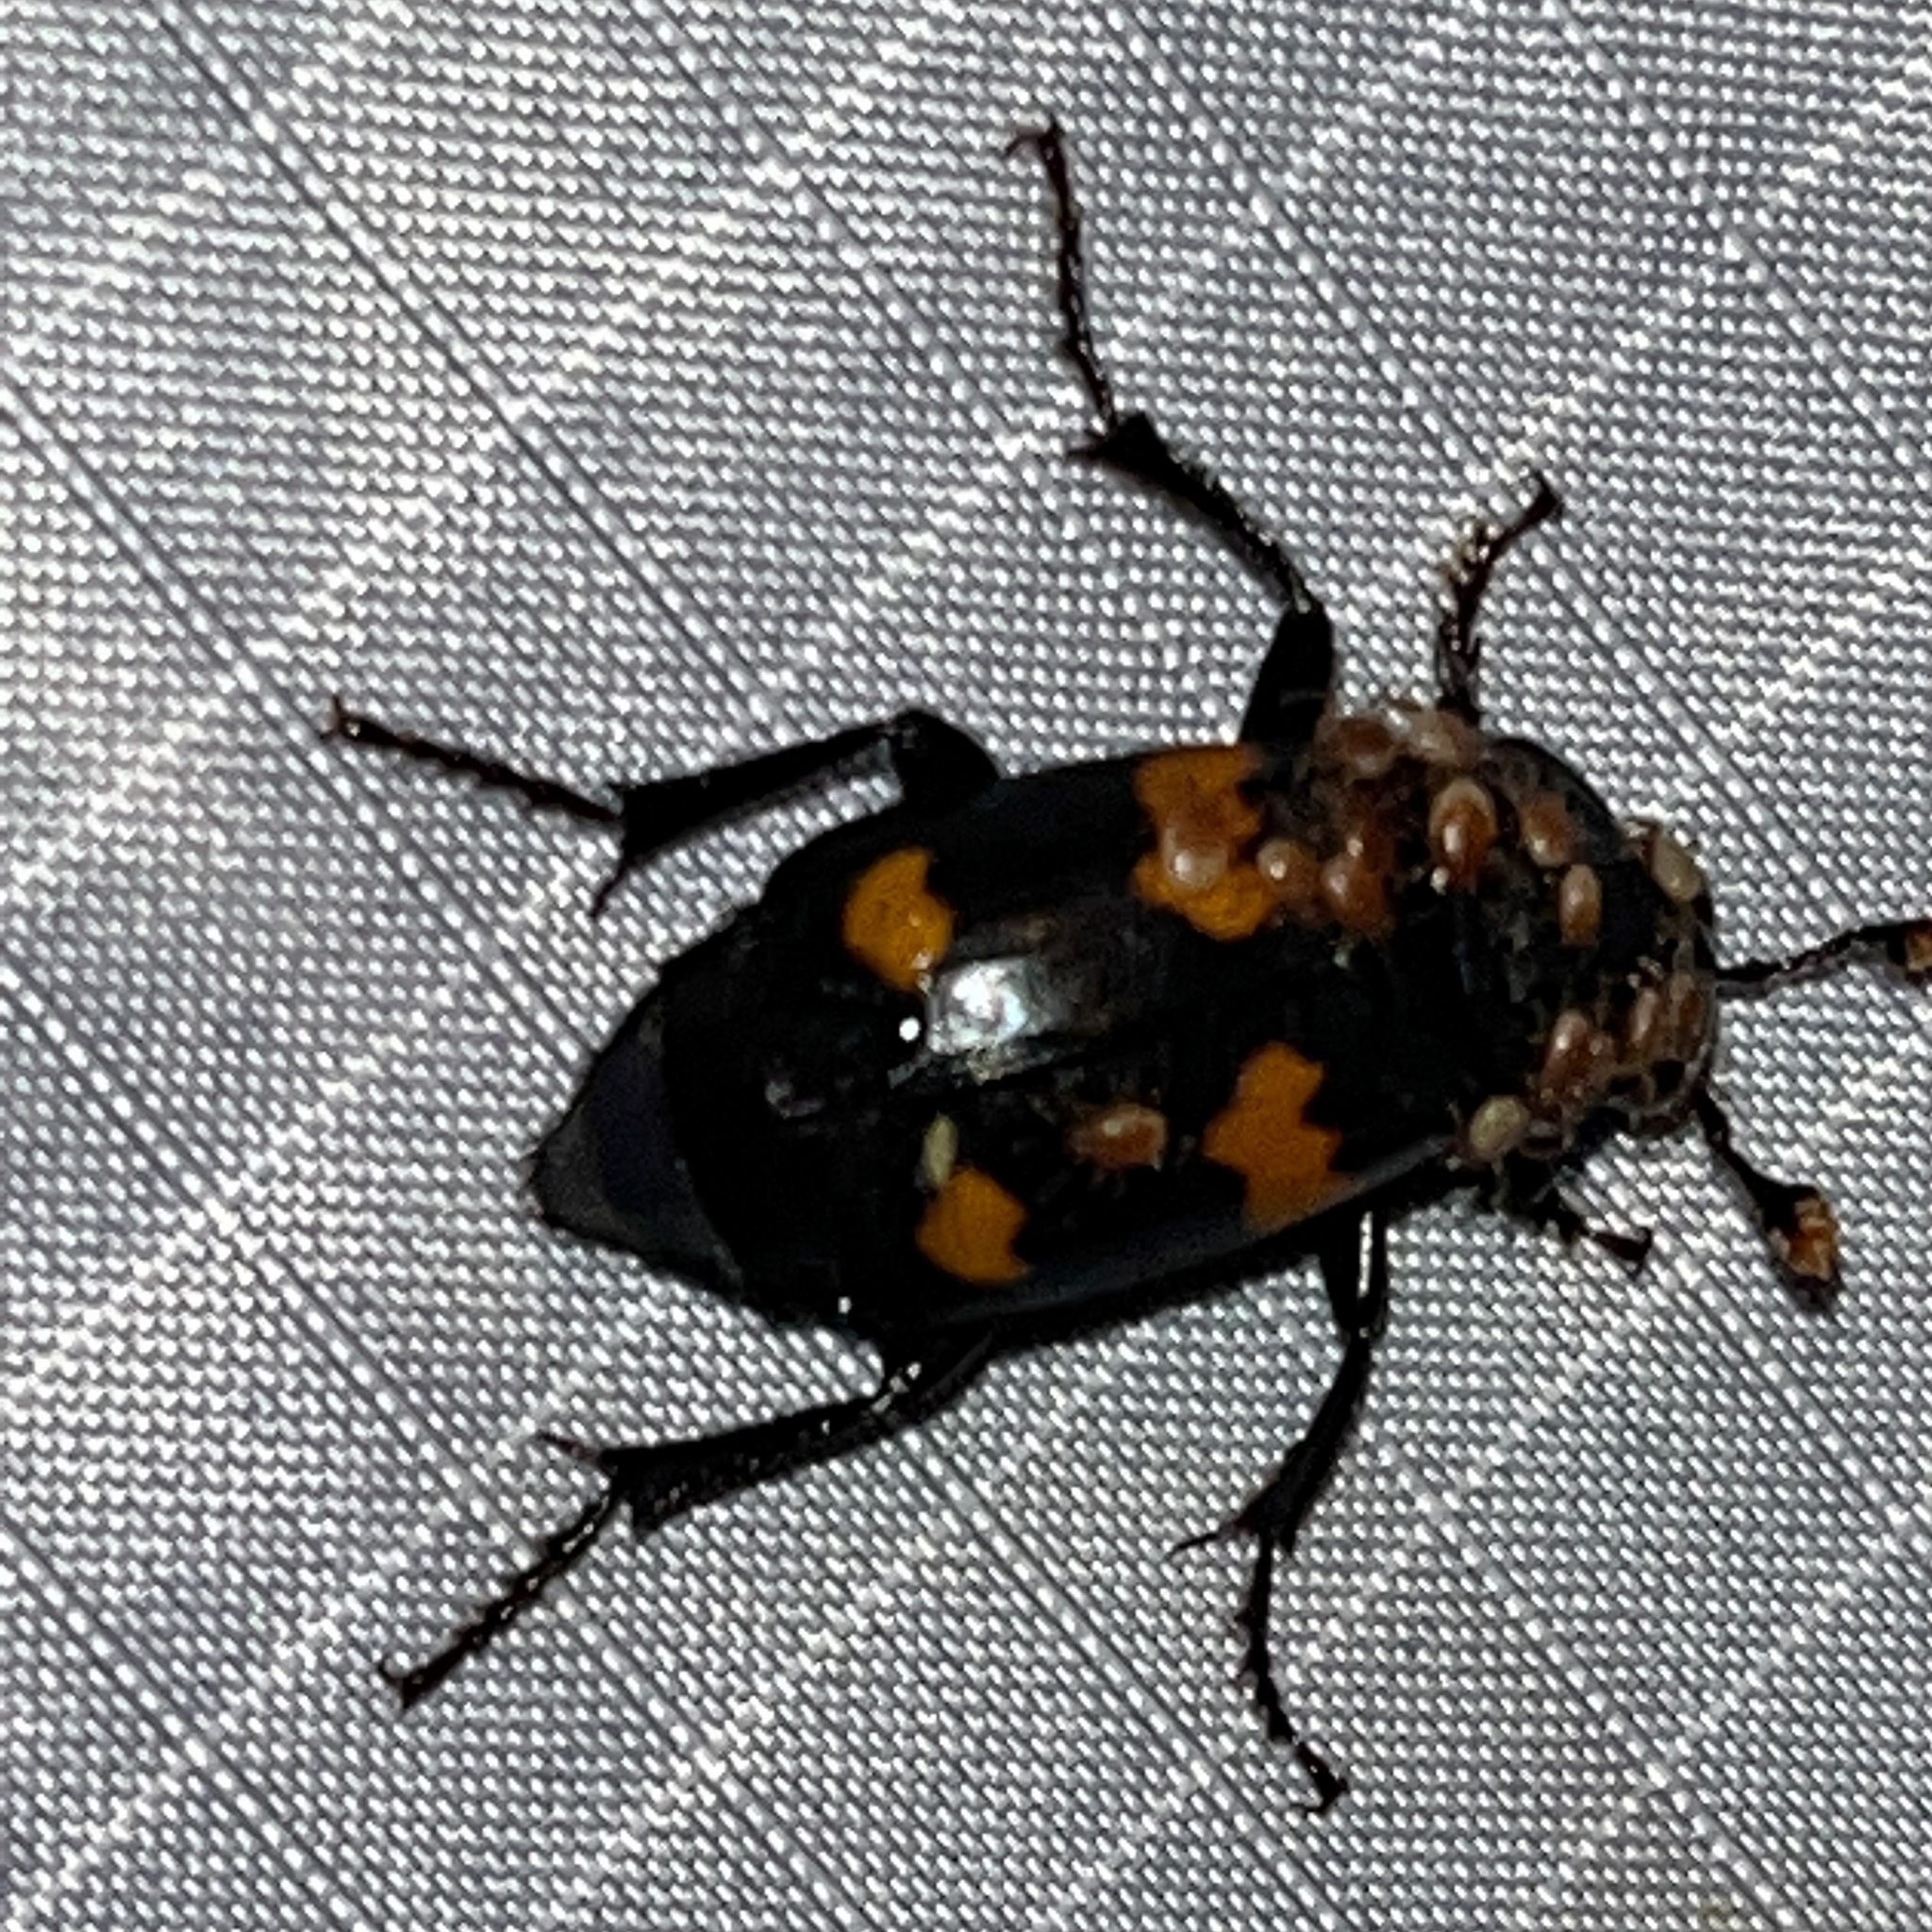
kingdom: Animalia
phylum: Arthropoda
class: Insecta
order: Coleoptera
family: Staphylinidae
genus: Nicrophorus
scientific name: Nicrophorus orbicollis
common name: Roundneck sexton beetle
